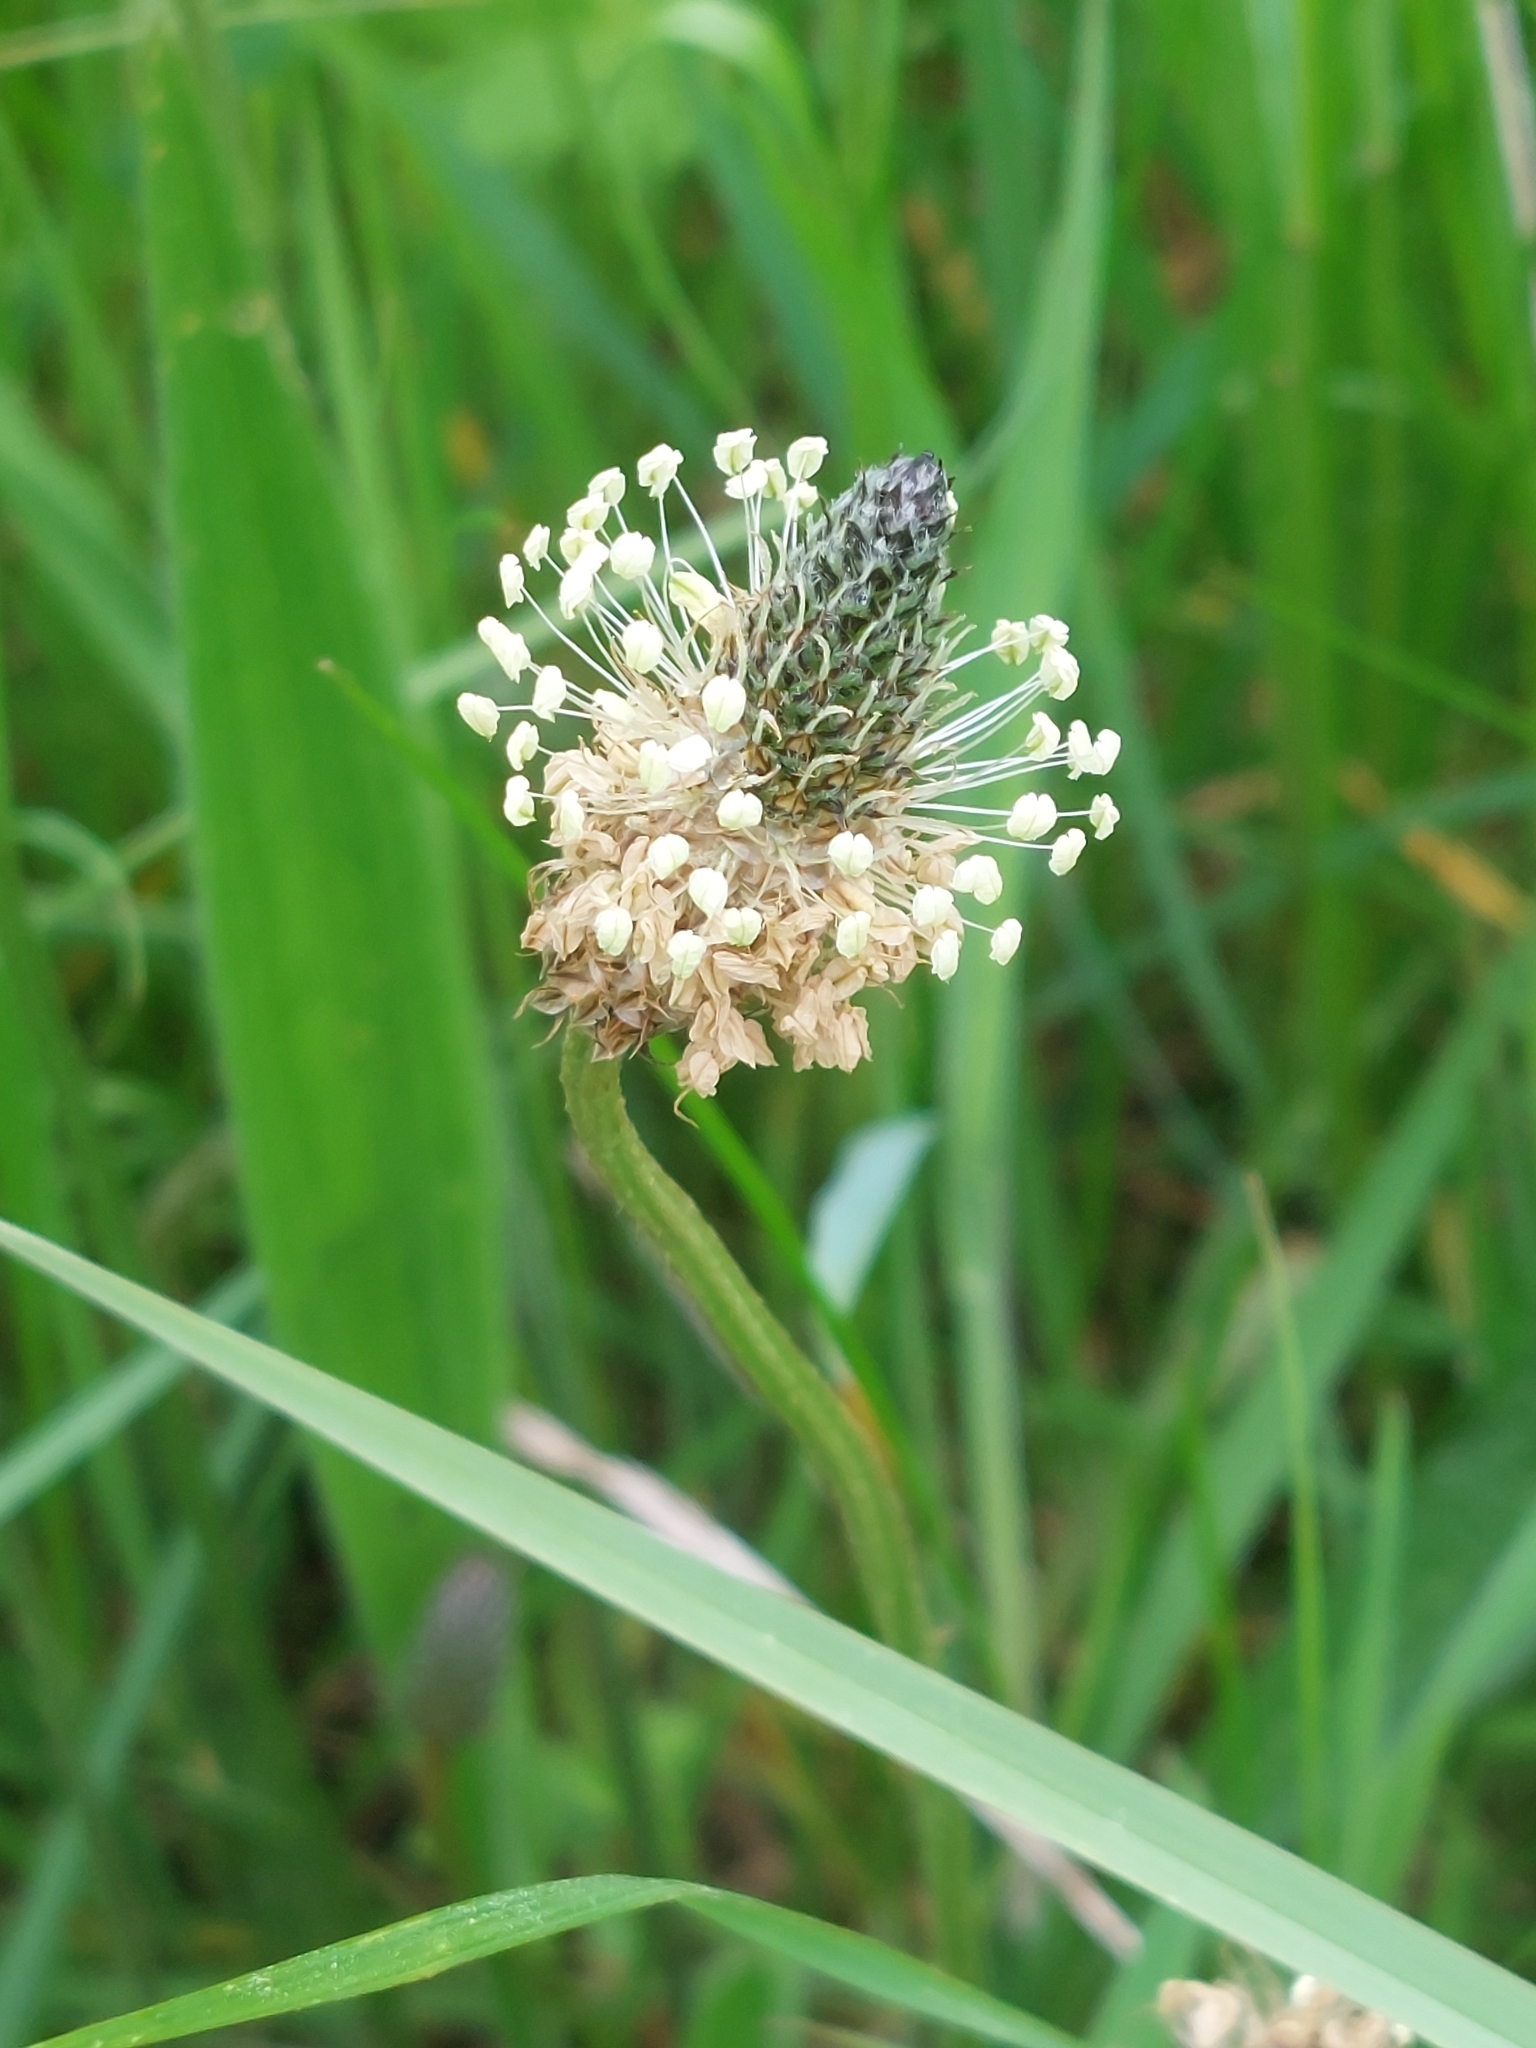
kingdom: Plantae
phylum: Tracheophyta
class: Magnoliopsida
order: Lamiales
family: Plantaginaceae
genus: Plantago
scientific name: Plantago lanceolata
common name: Ribwort plantain
